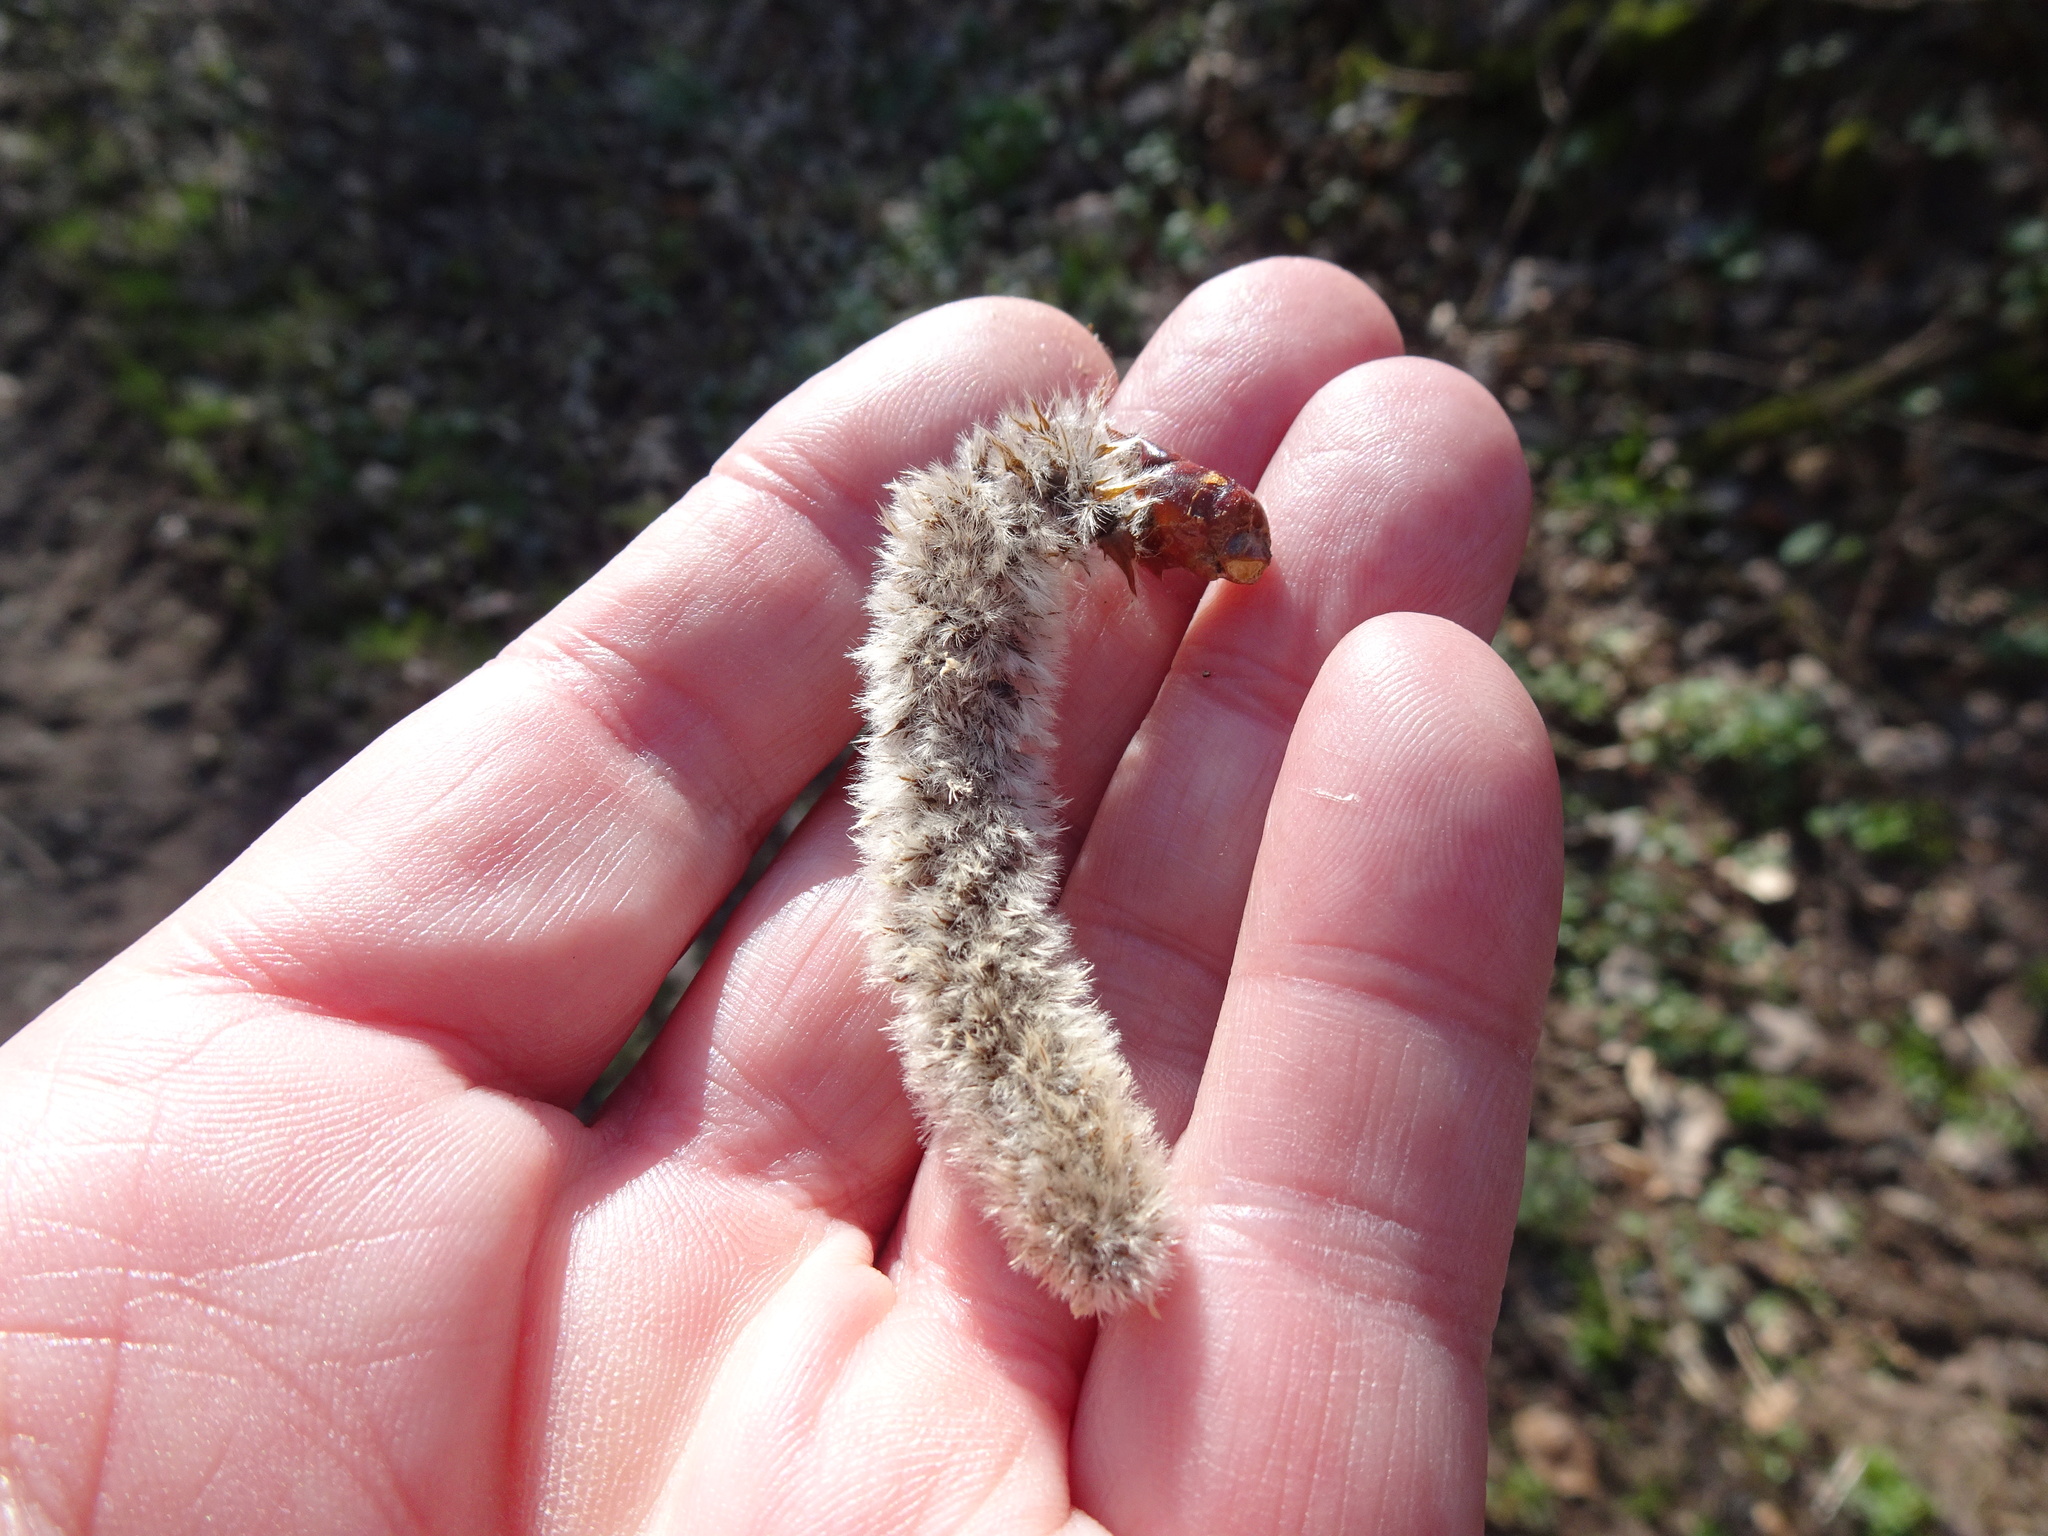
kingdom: Plantae
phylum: Tracheophyta
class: Magnoliopsida
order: Malpighiales
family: Salicaceae
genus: Populus
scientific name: Populus tremula
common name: European aspen
